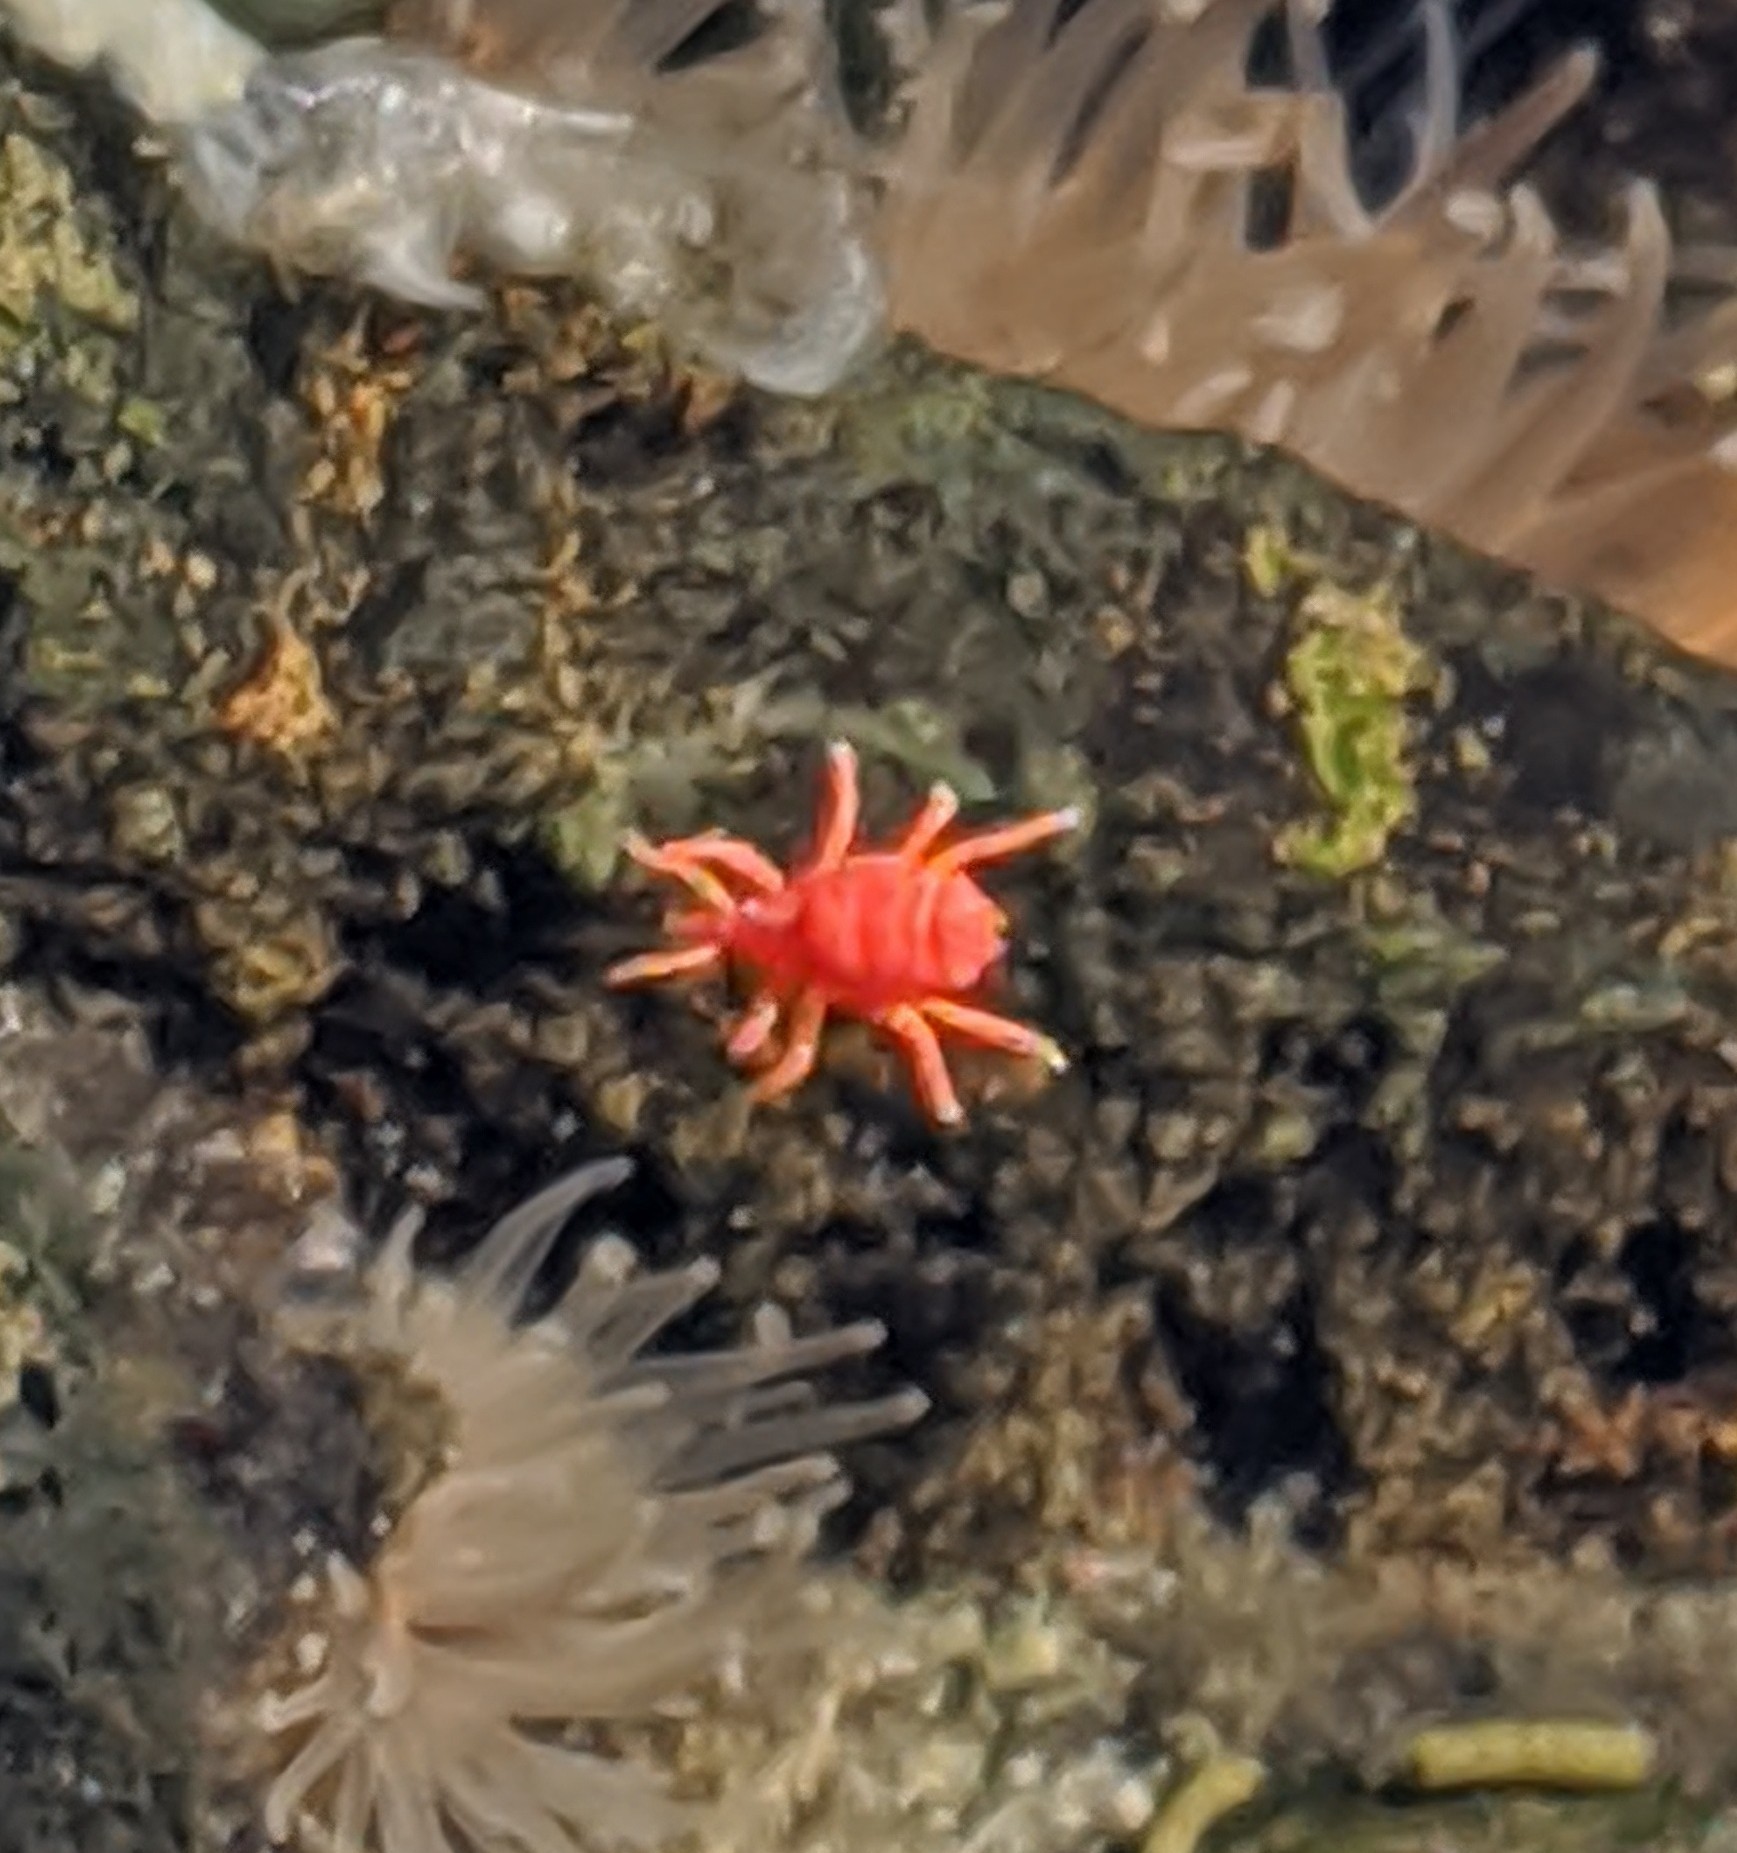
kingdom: Animalia
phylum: Arthropoda
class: Arachnida
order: Trombidiformes
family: Bdellidae
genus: Neomolgus
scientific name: Neomolgus littoralis
